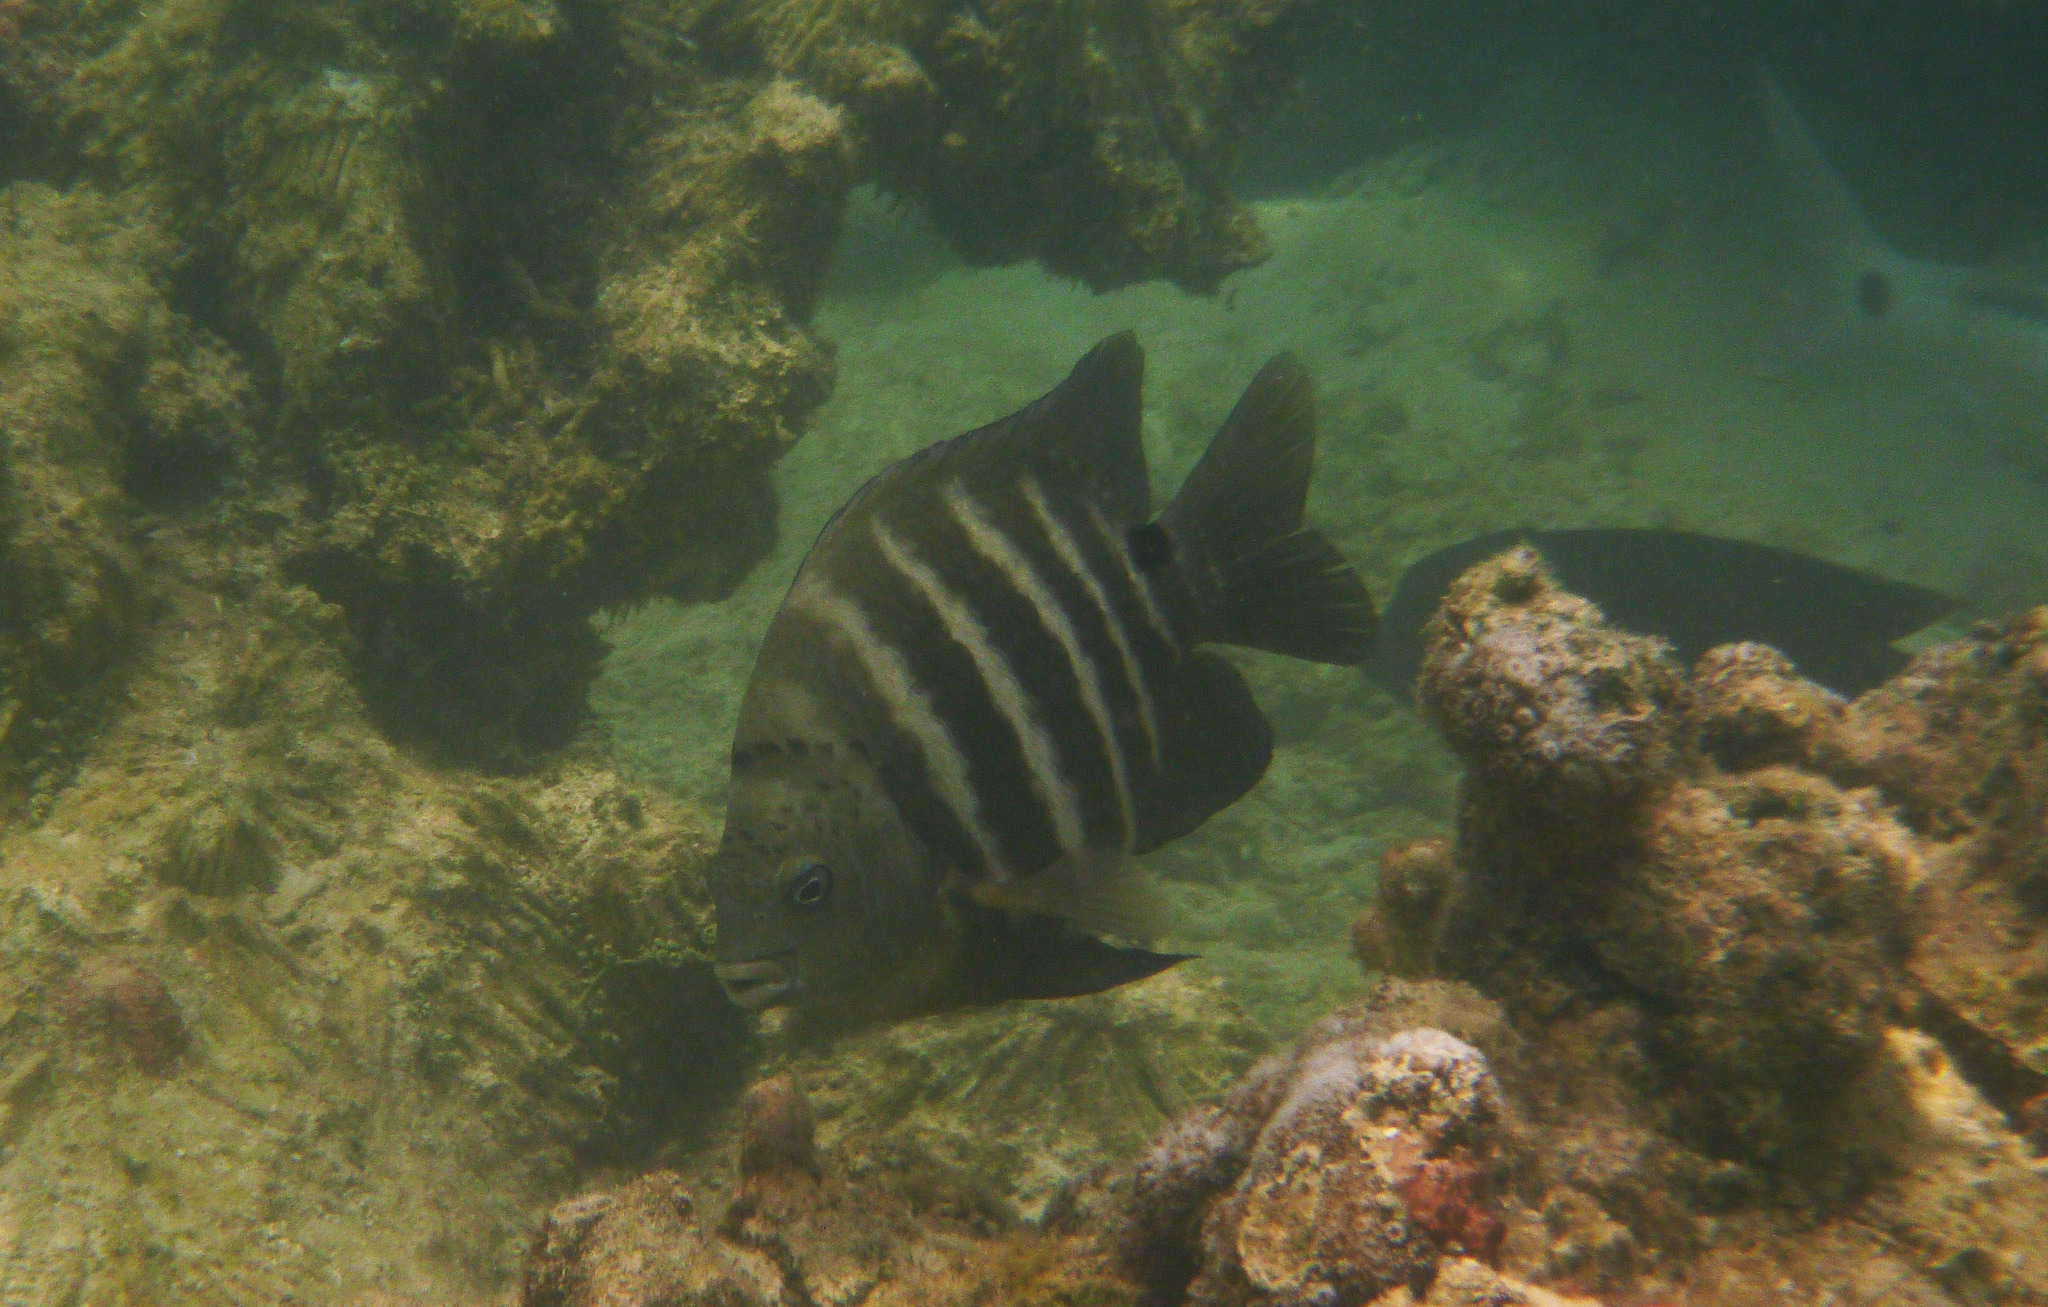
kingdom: Animalia
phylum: Chordata
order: Perciformes
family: Pomacentridae
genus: Abudefduf
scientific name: Abudefduf sordidus
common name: Blackspot sergeant
